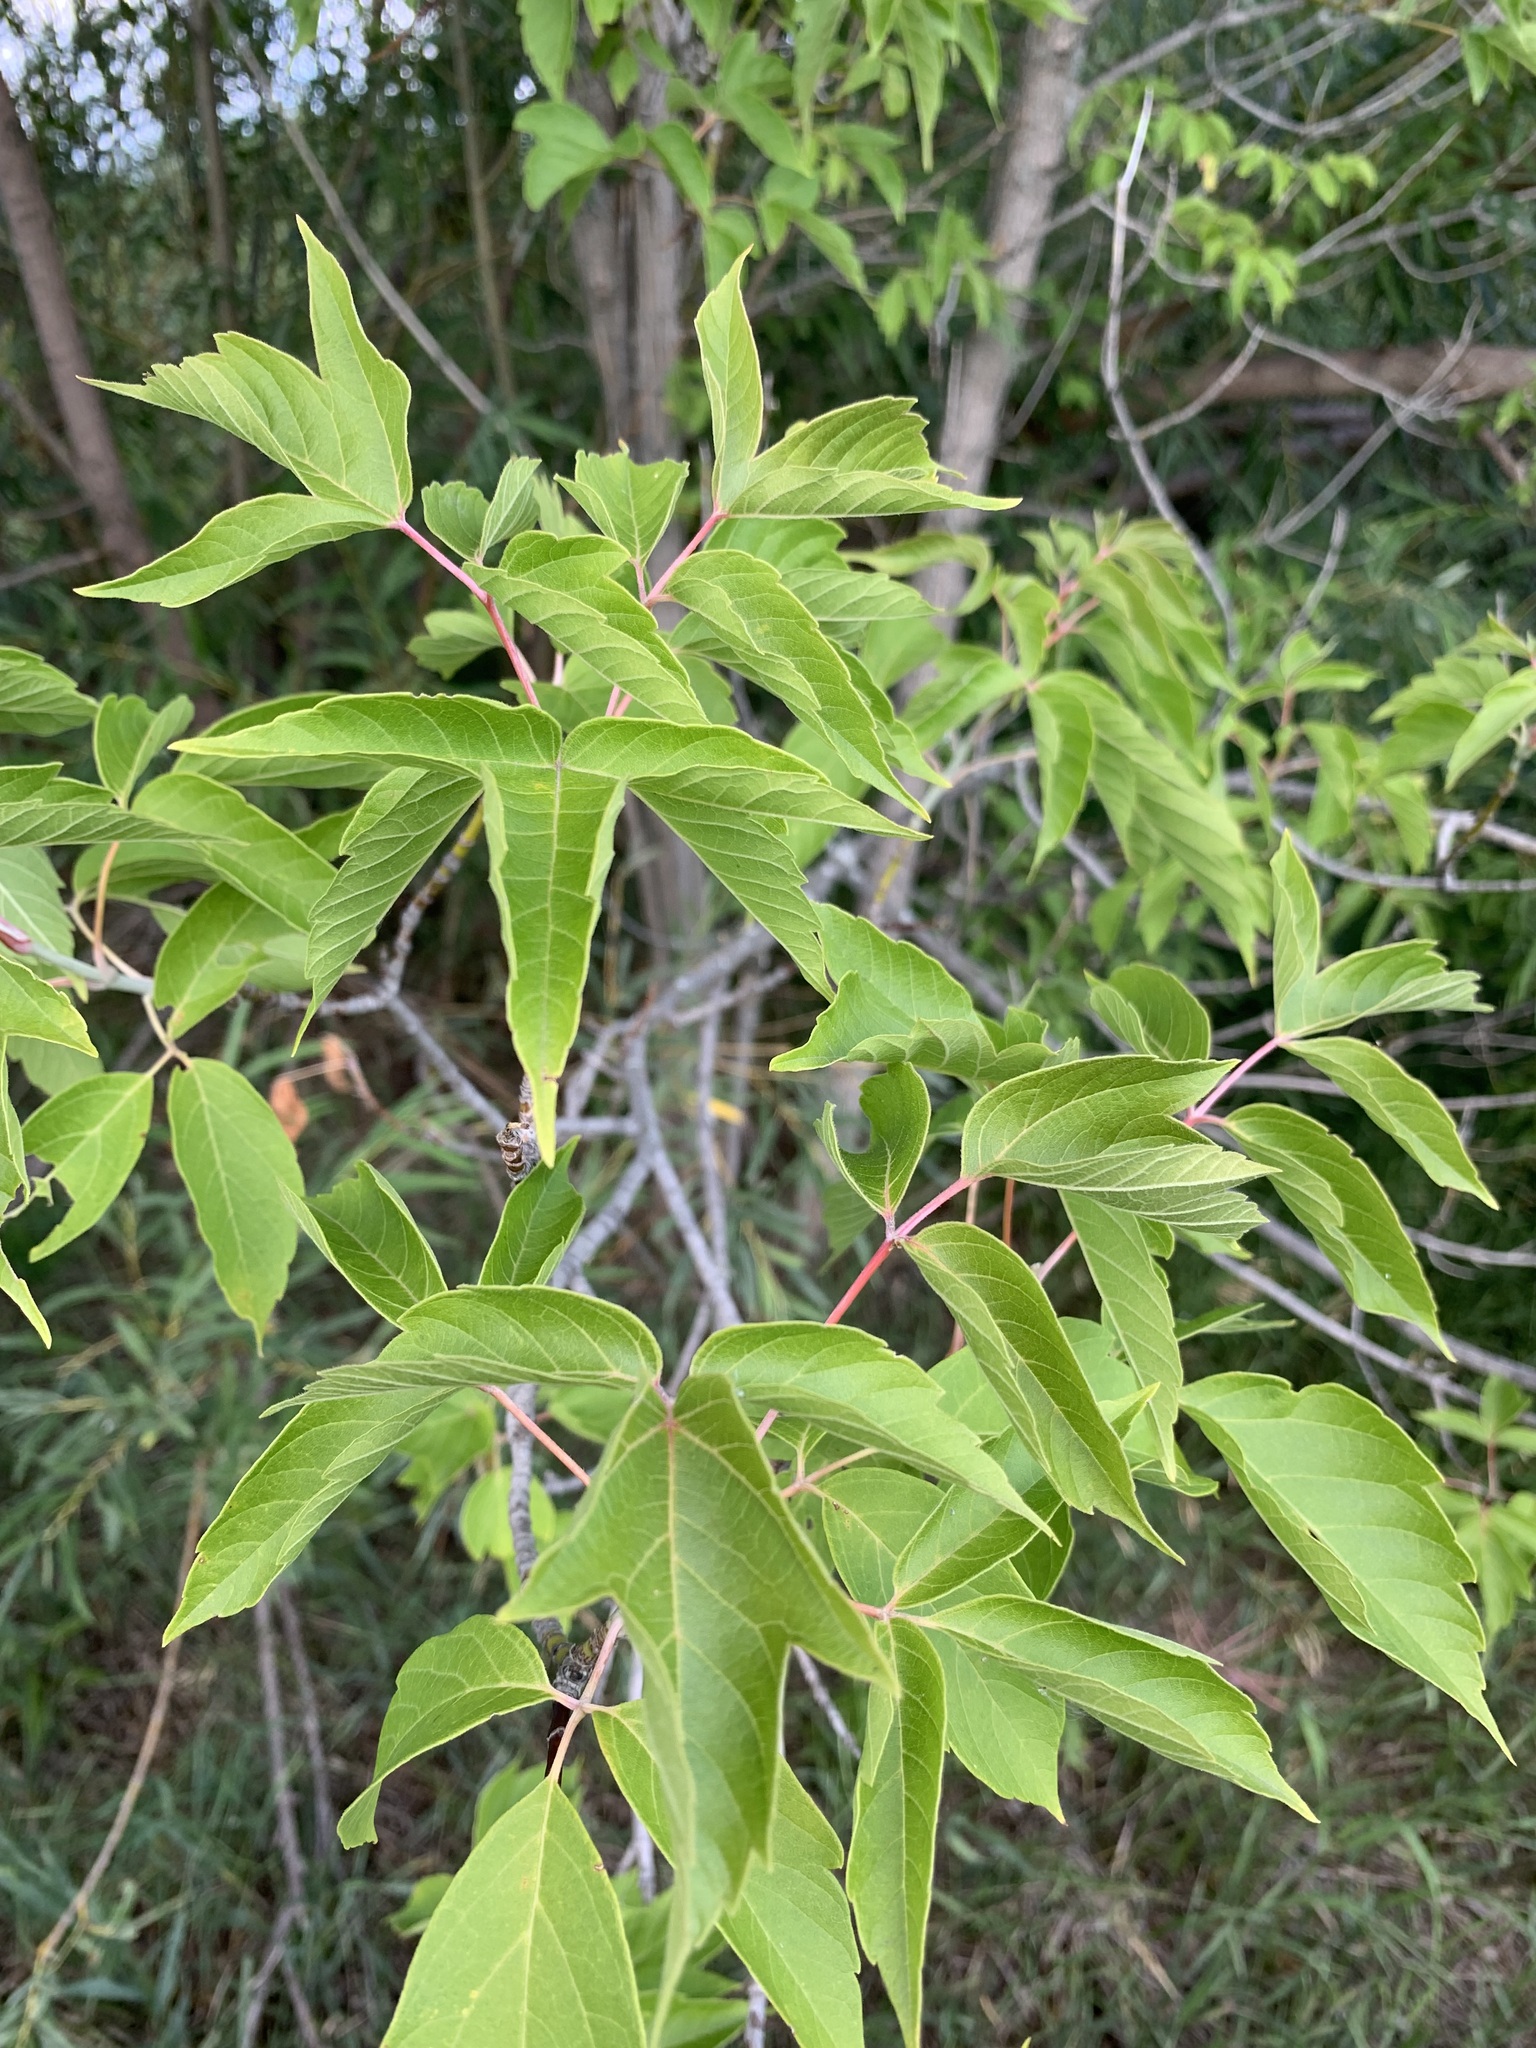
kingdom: Plantae
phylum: Tracheophyta
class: Magnoliopsida
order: Sapindales
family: Sapindaceae
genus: Acer
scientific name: Acer negundo
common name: Ashleaf maple
